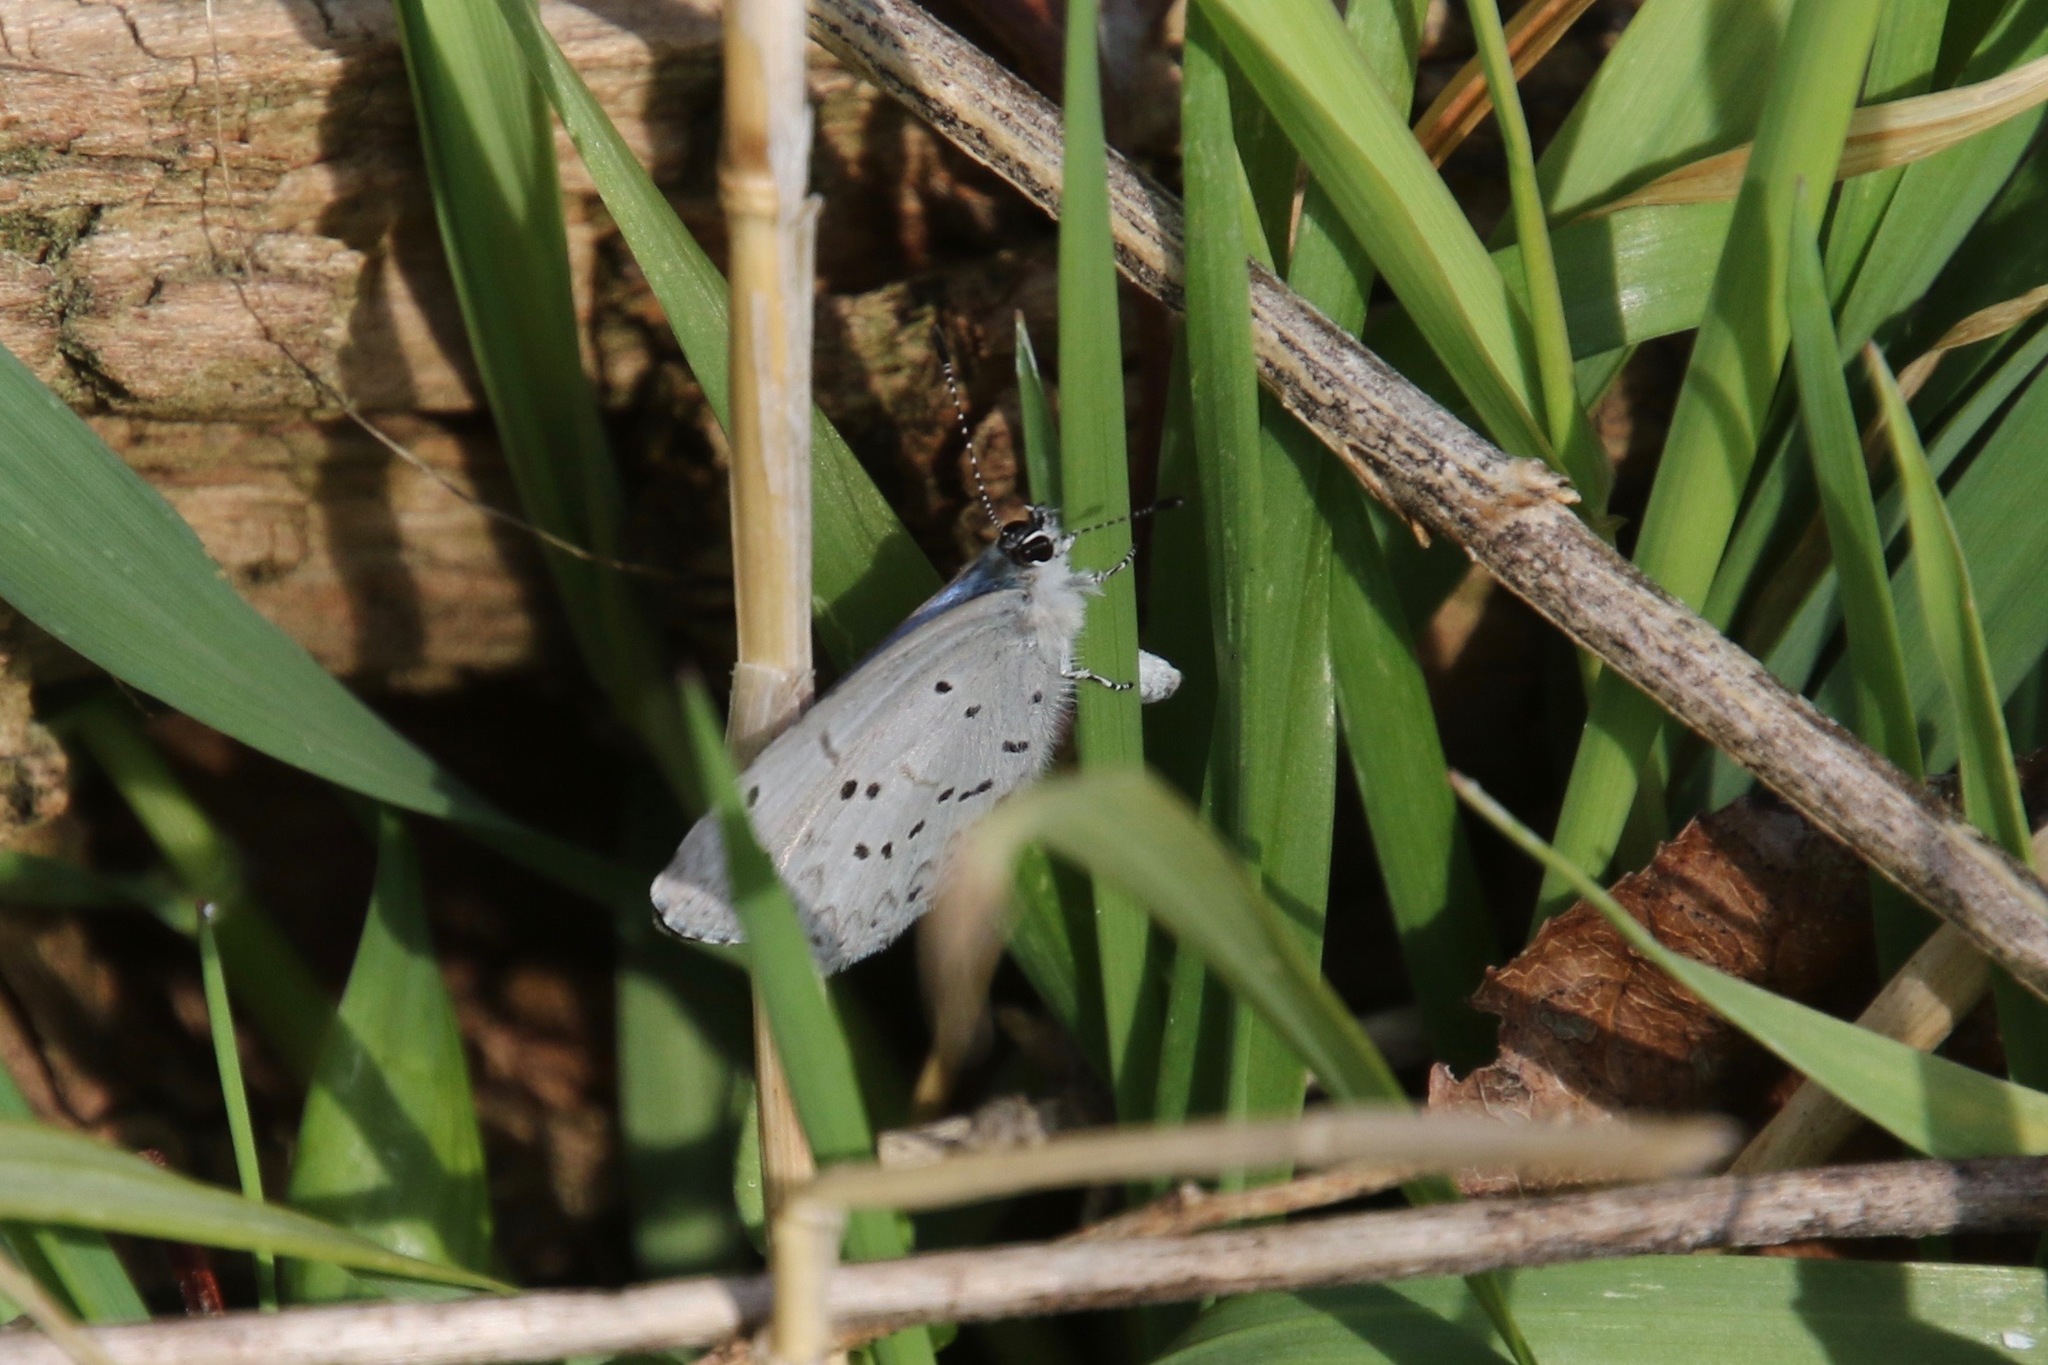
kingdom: Animalia
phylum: Arthropoda
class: Insecta
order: Lepidoptera
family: Lycaenidae
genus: Cyaniris
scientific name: Cyaniris neglecta
